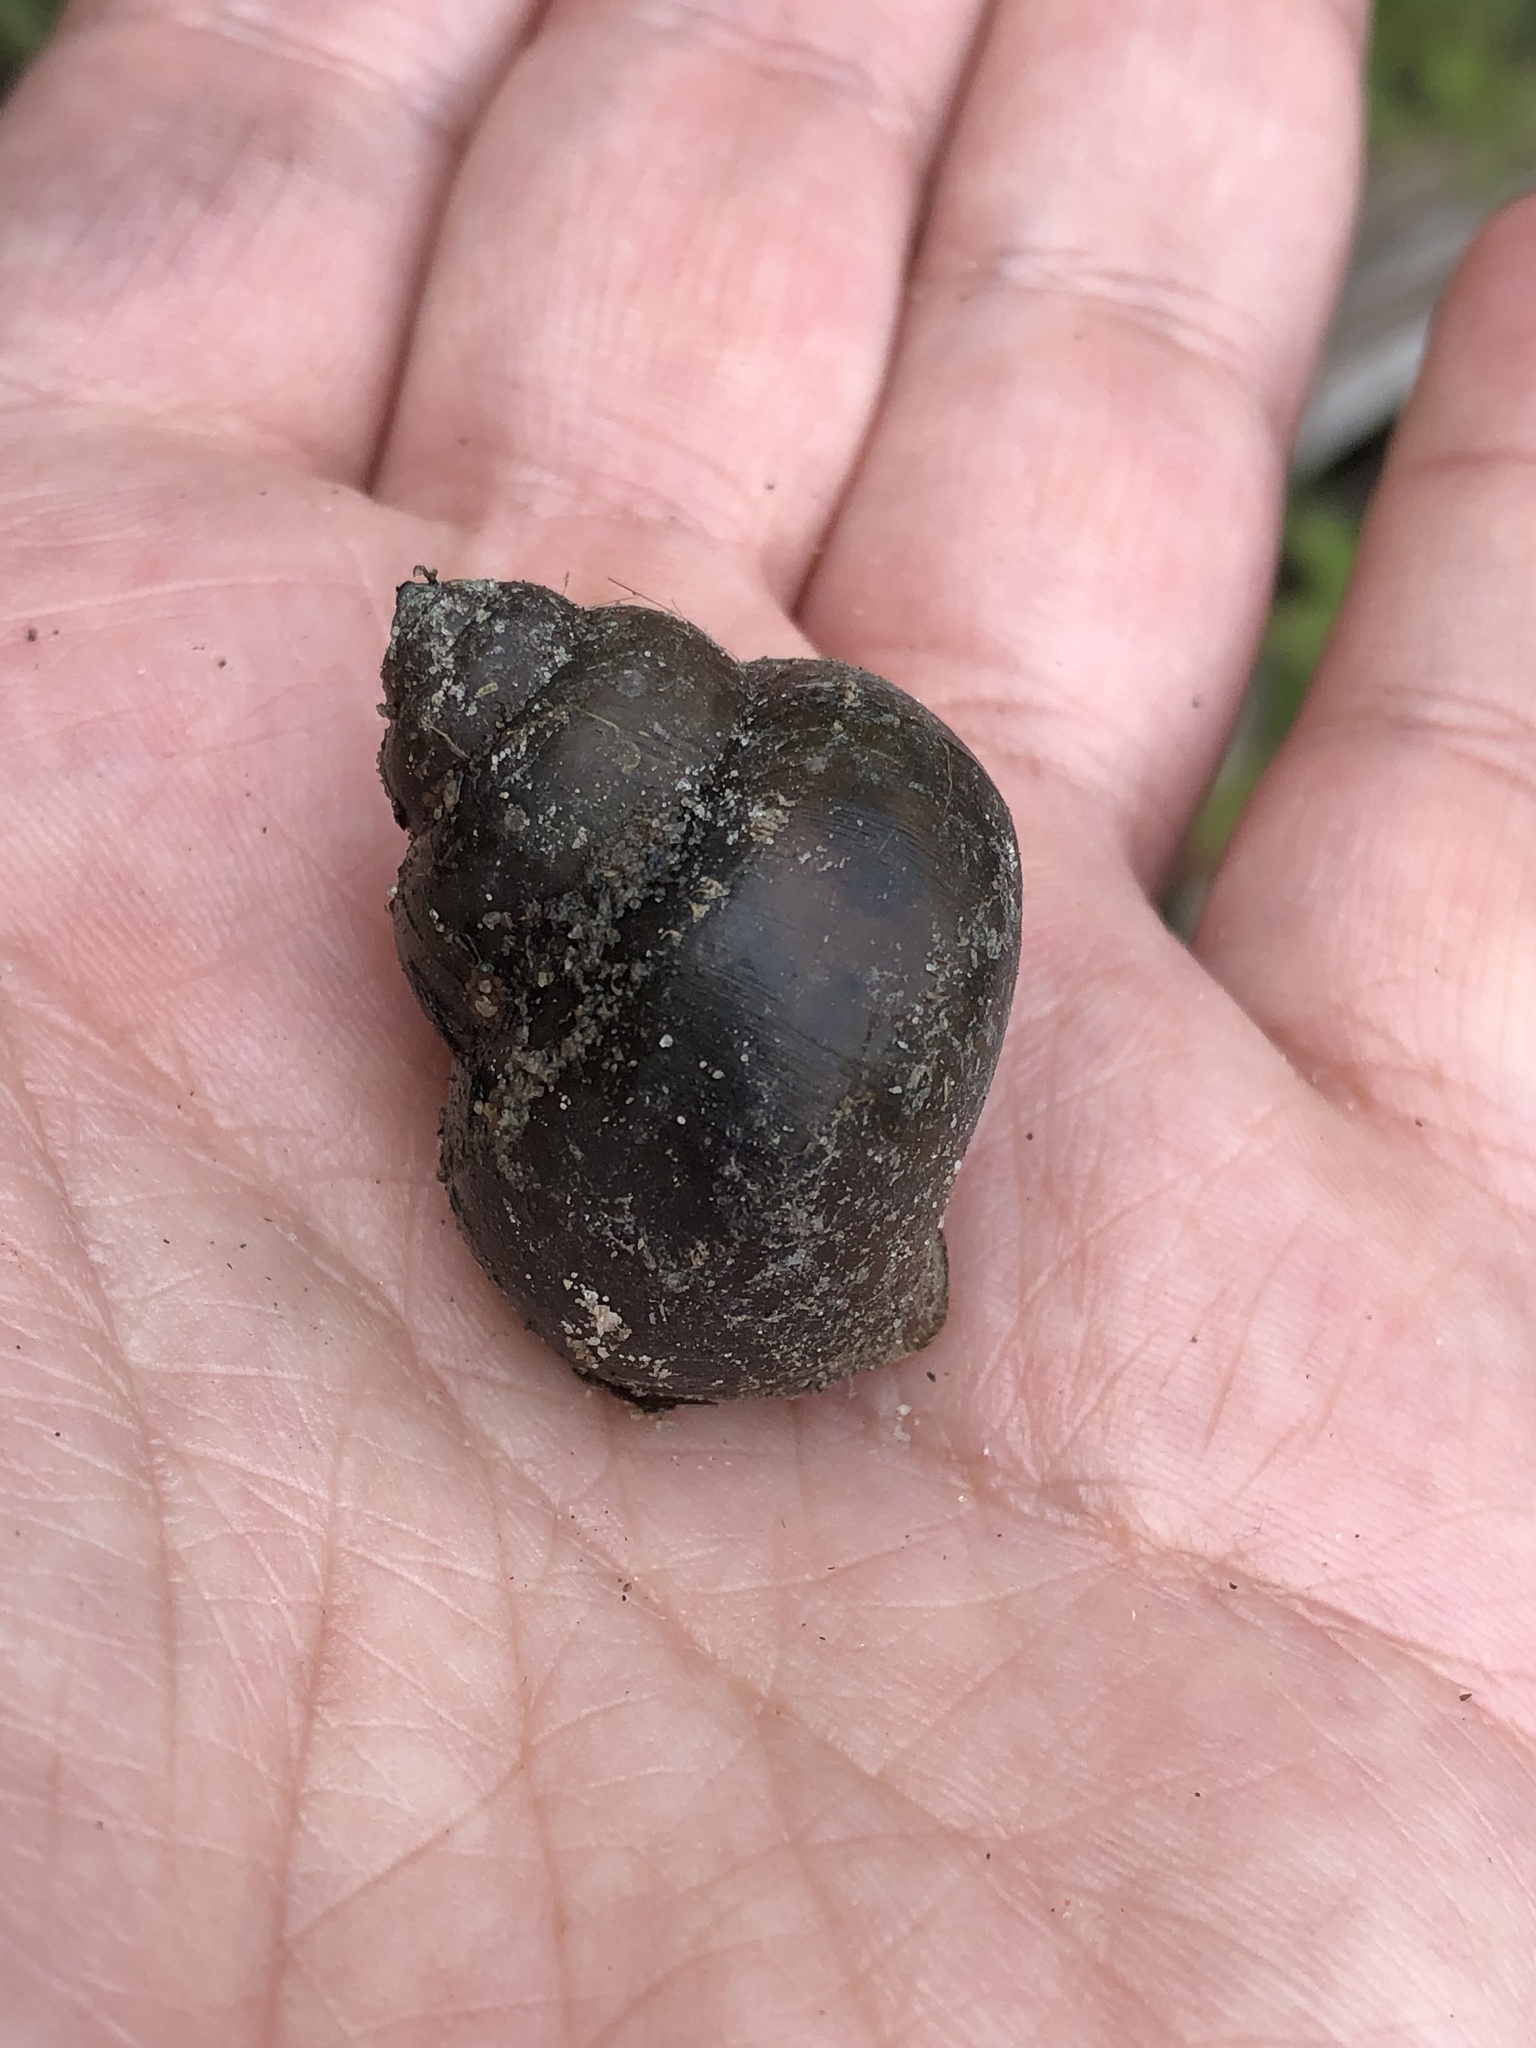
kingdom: Animalia
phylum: Mollusca
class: Gastropoda
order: Architaenioglossa
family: Viviparidae
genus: Cipangopaludina
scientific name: Cipangopaludina chinensis
